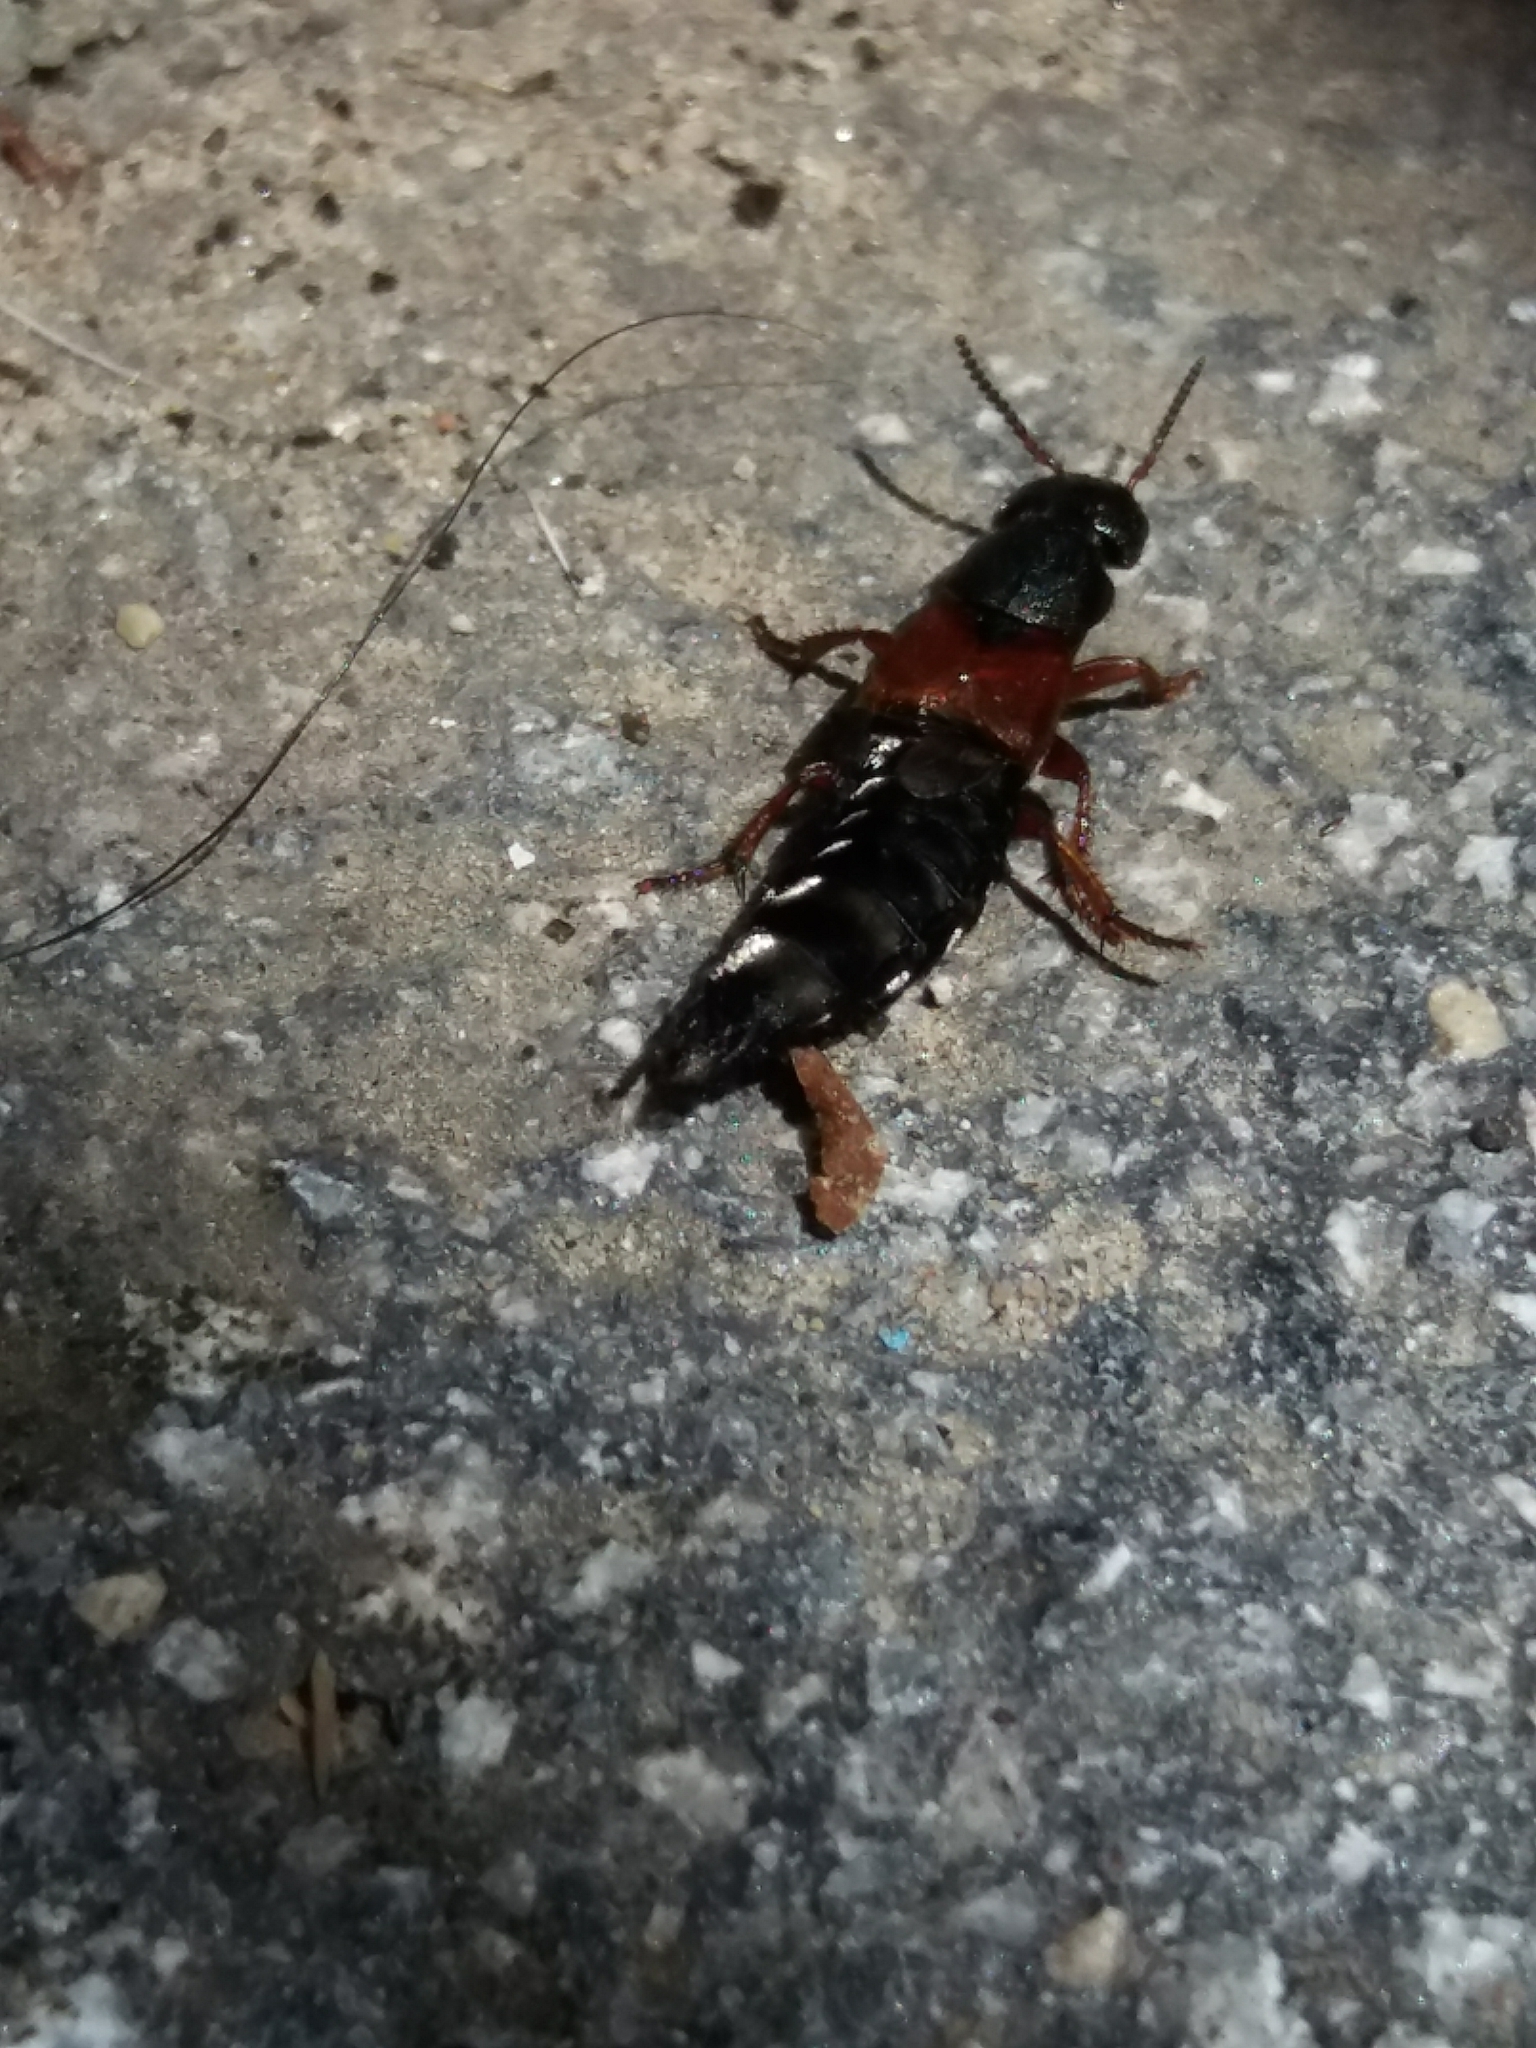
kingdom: Animalia
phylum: Arthropoda
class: Insecta
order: Coleoptera
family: Staphylinidae
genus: Platydracus
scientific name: Platydracus stercorarius
